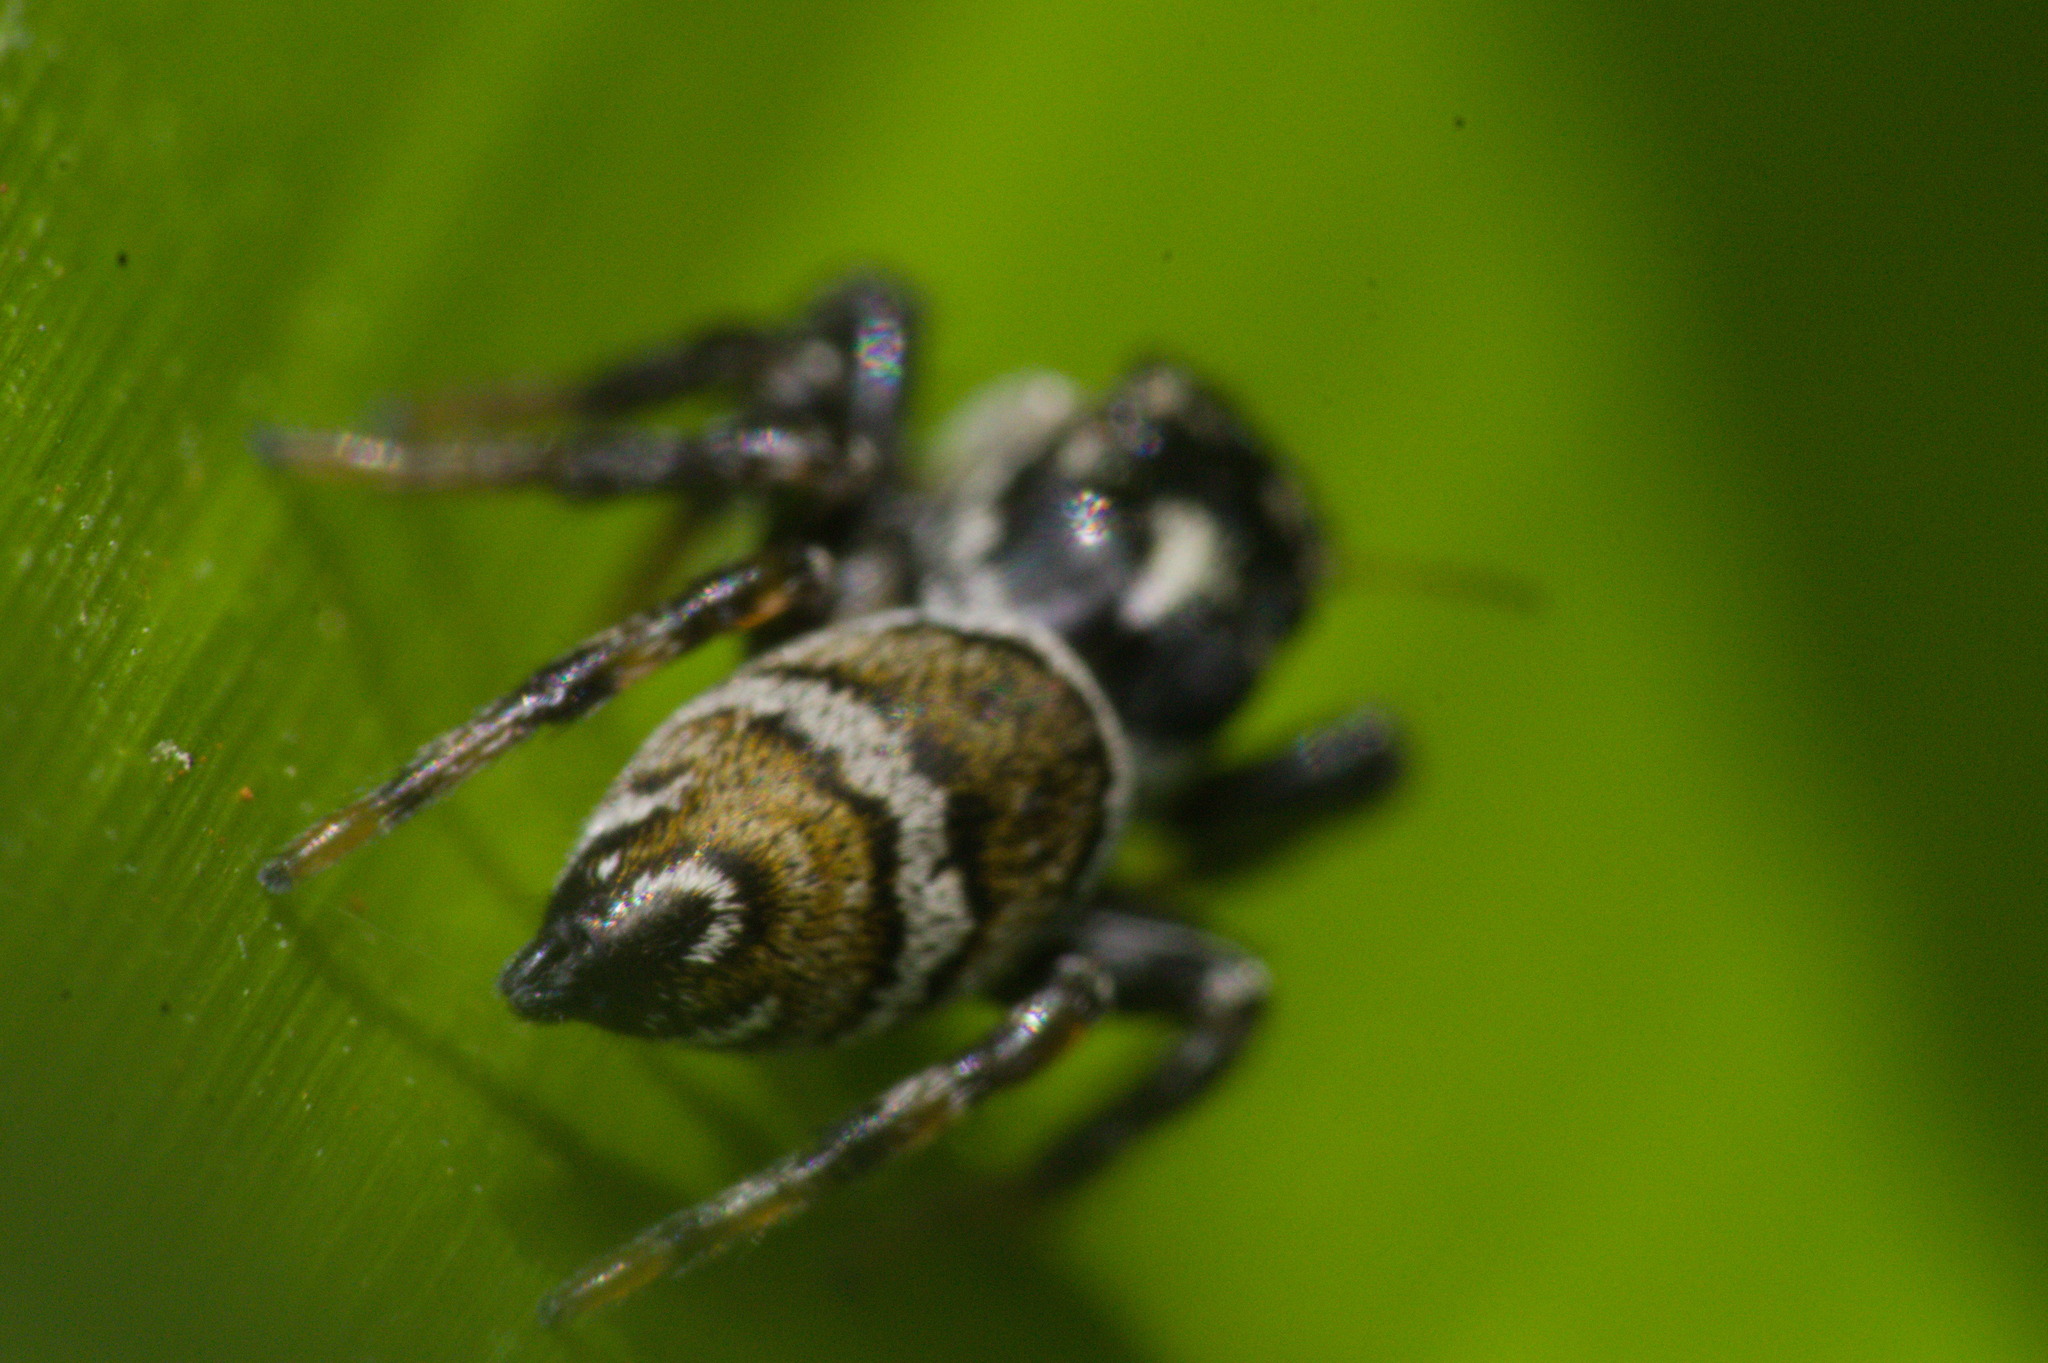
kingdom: Animalia
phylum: Arthropoda
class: Arachnida
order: Araneae
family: Salticidae
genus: Pachomius
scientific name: Pachomius misionensis
